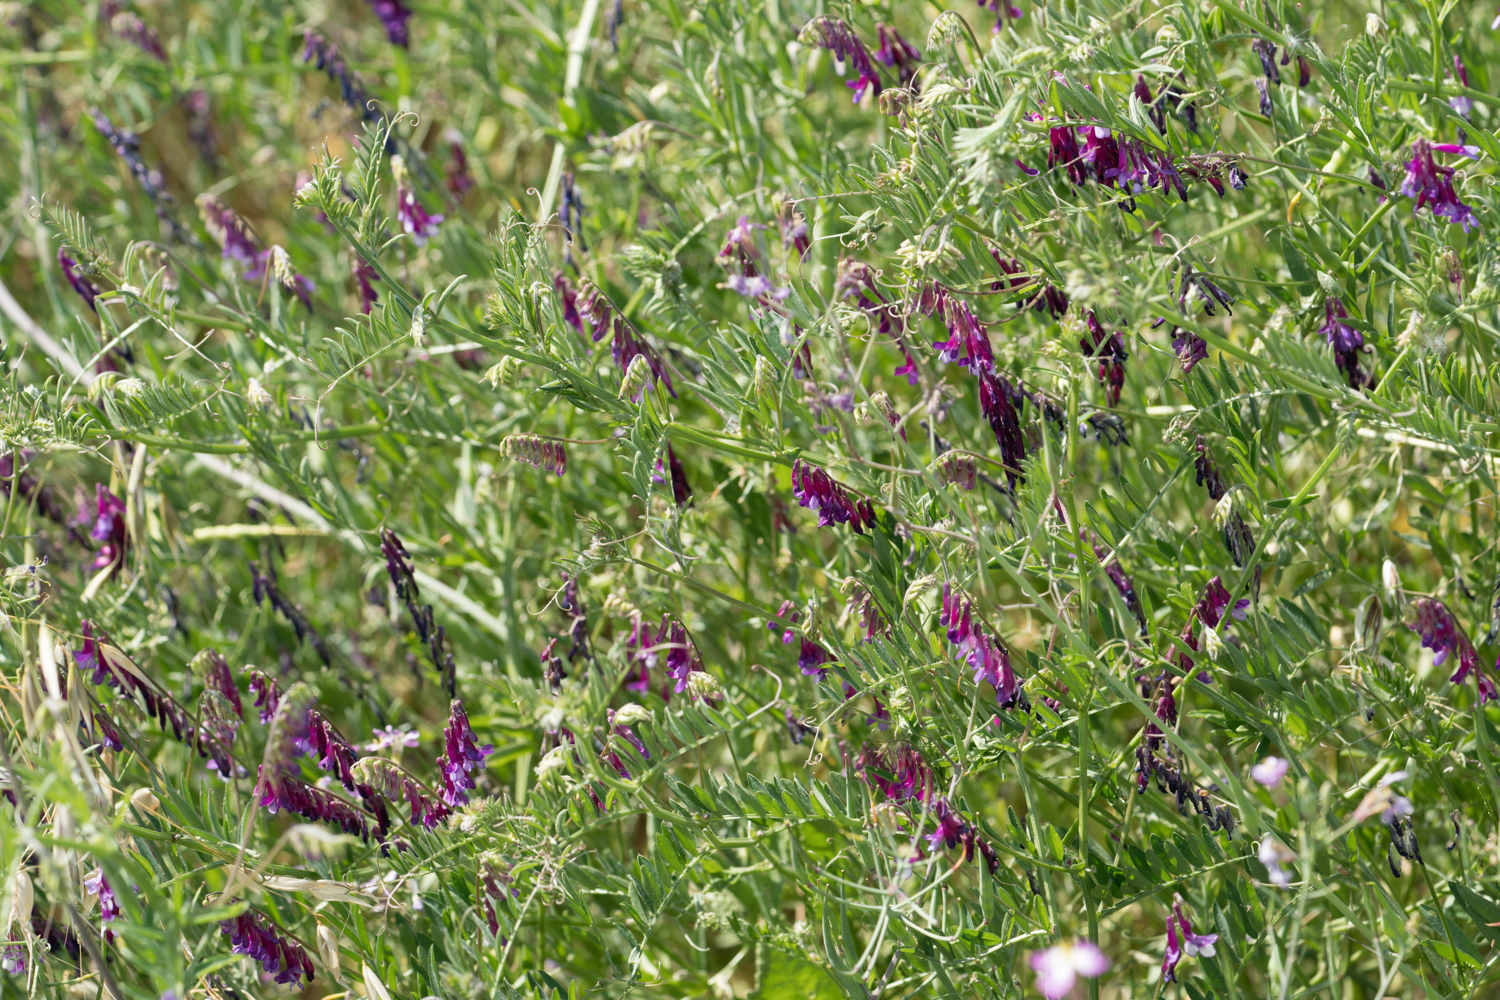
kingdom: Plantae
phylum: Tracheophyta
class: Magnoliopsida
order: Fabales
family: Fabaceae
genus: Vicia
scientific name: Vicia villosa
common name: Fodder vetch
